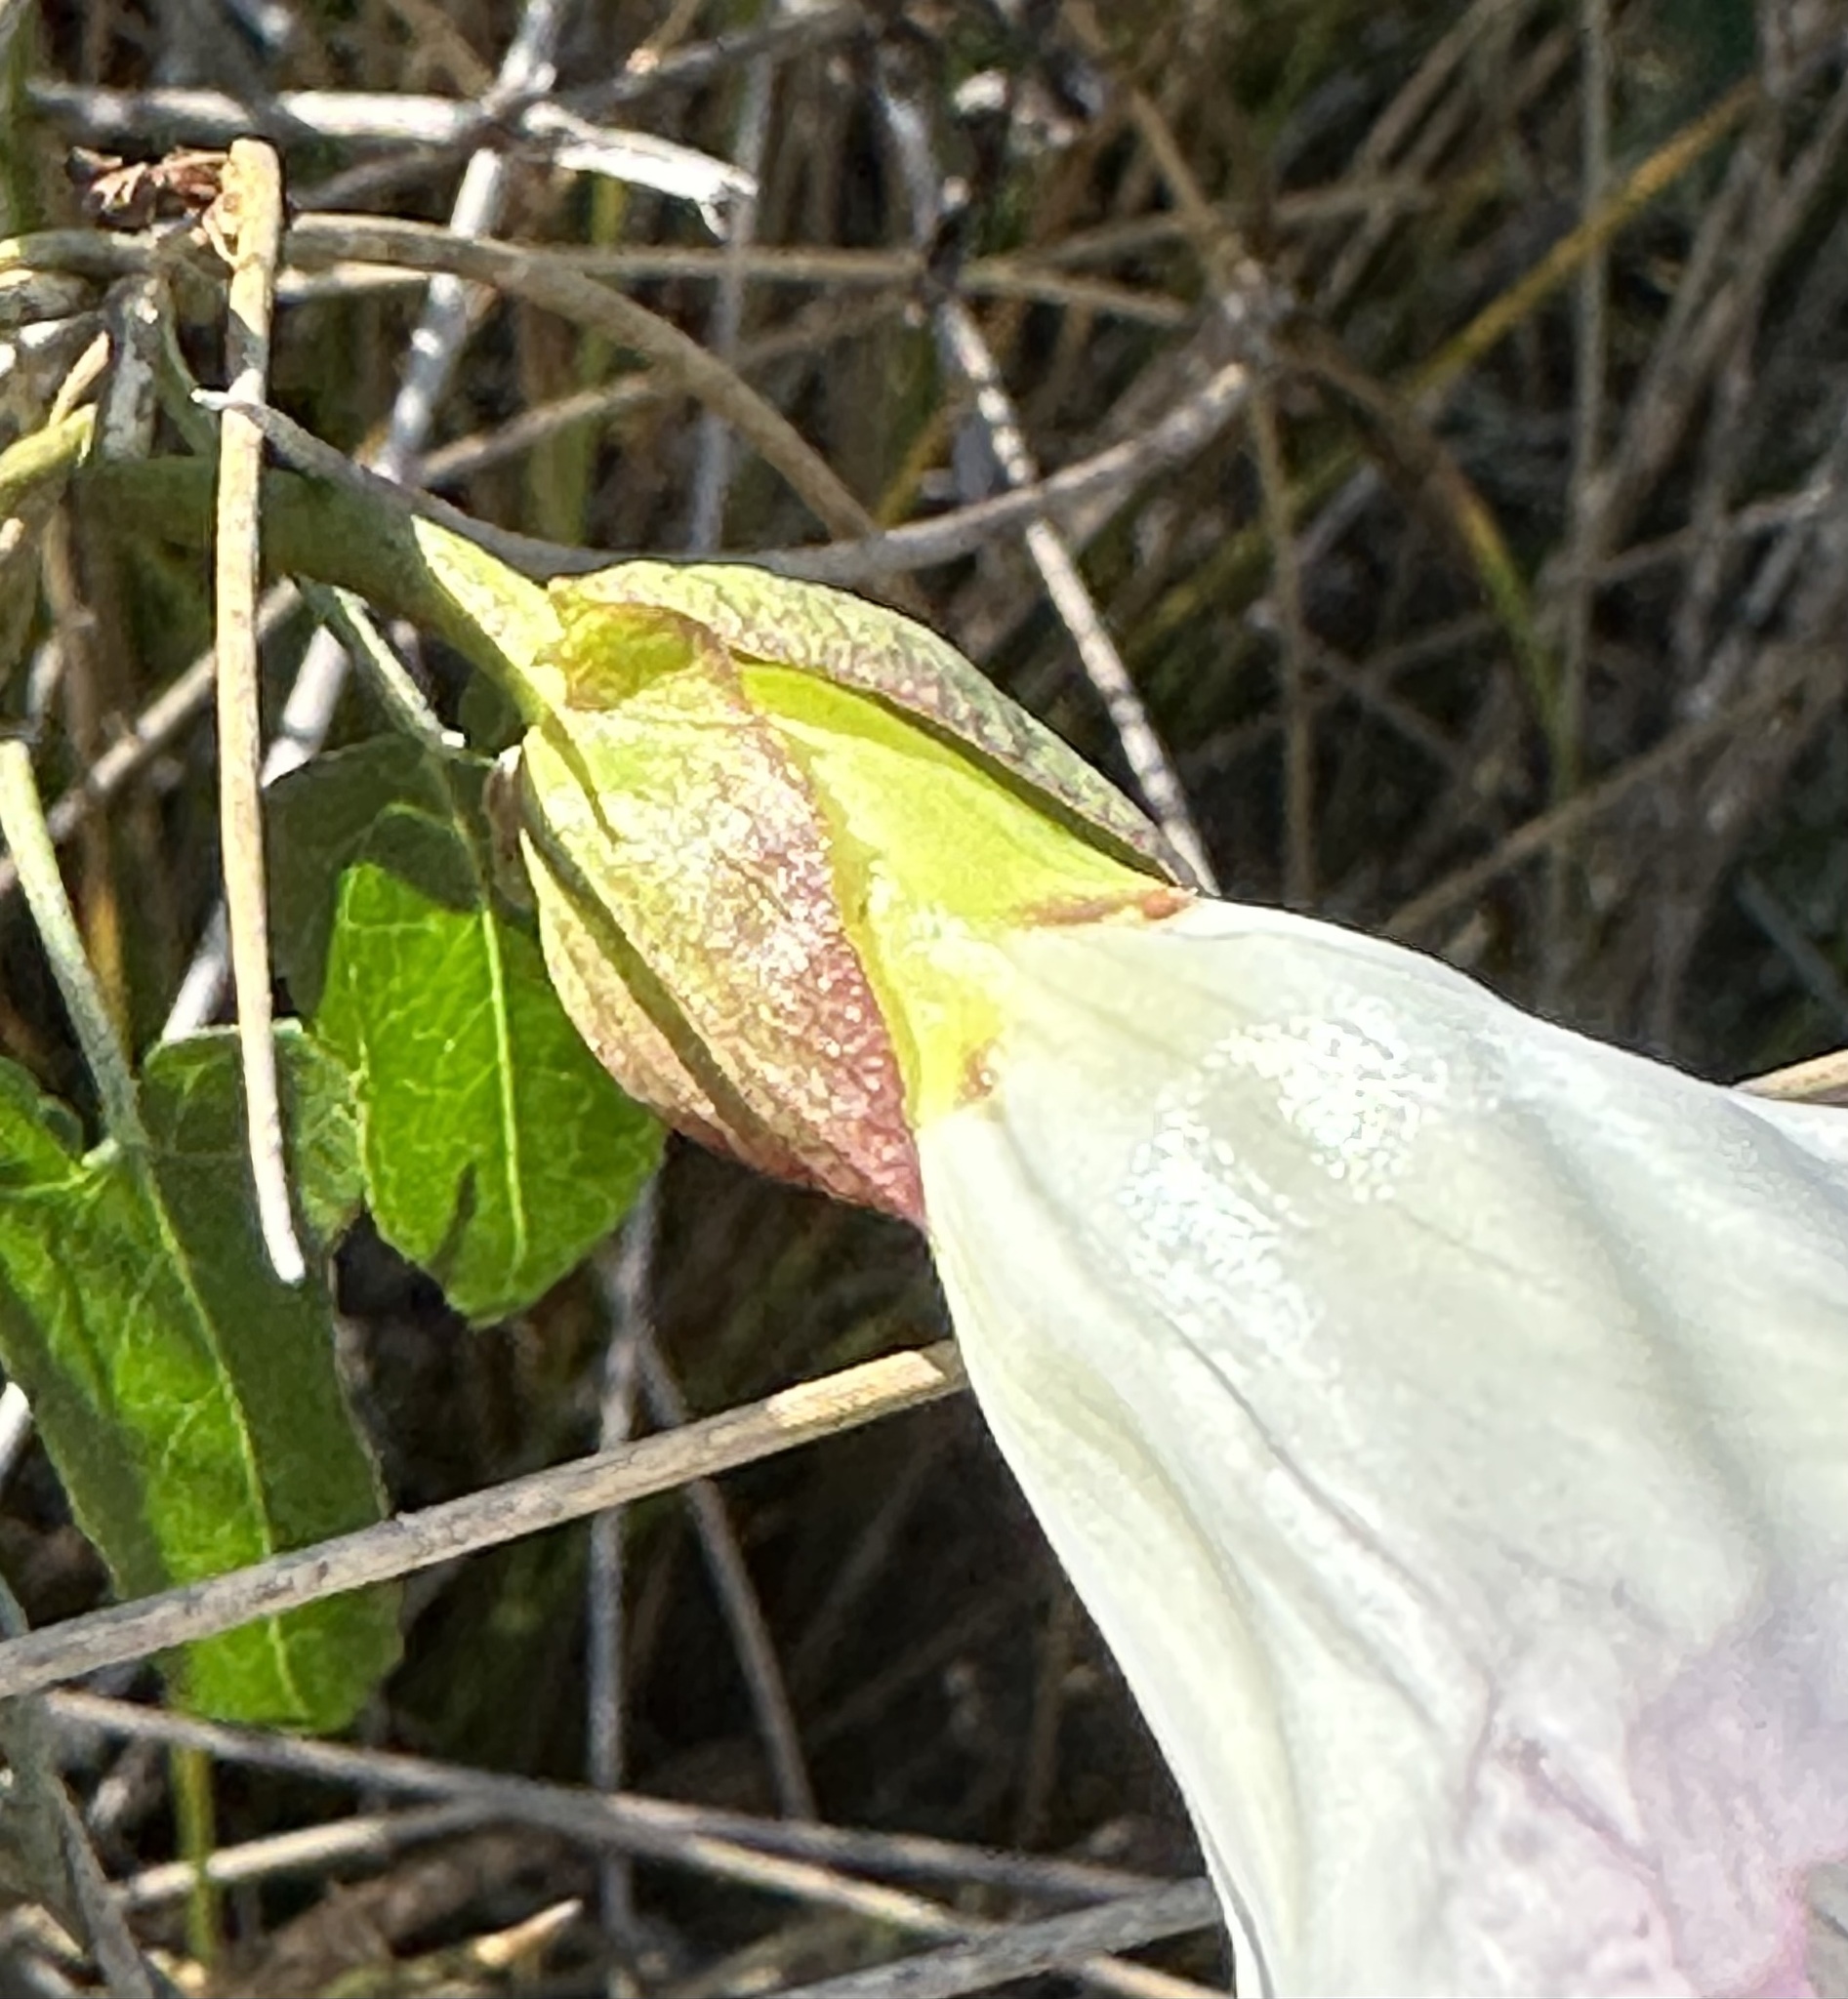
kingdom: Plantae
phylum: Tracheophyta
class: Magnoliopsida
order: Solanales
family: Convolvulaceae
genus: Calystegia
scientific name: Calystegia purpurata
